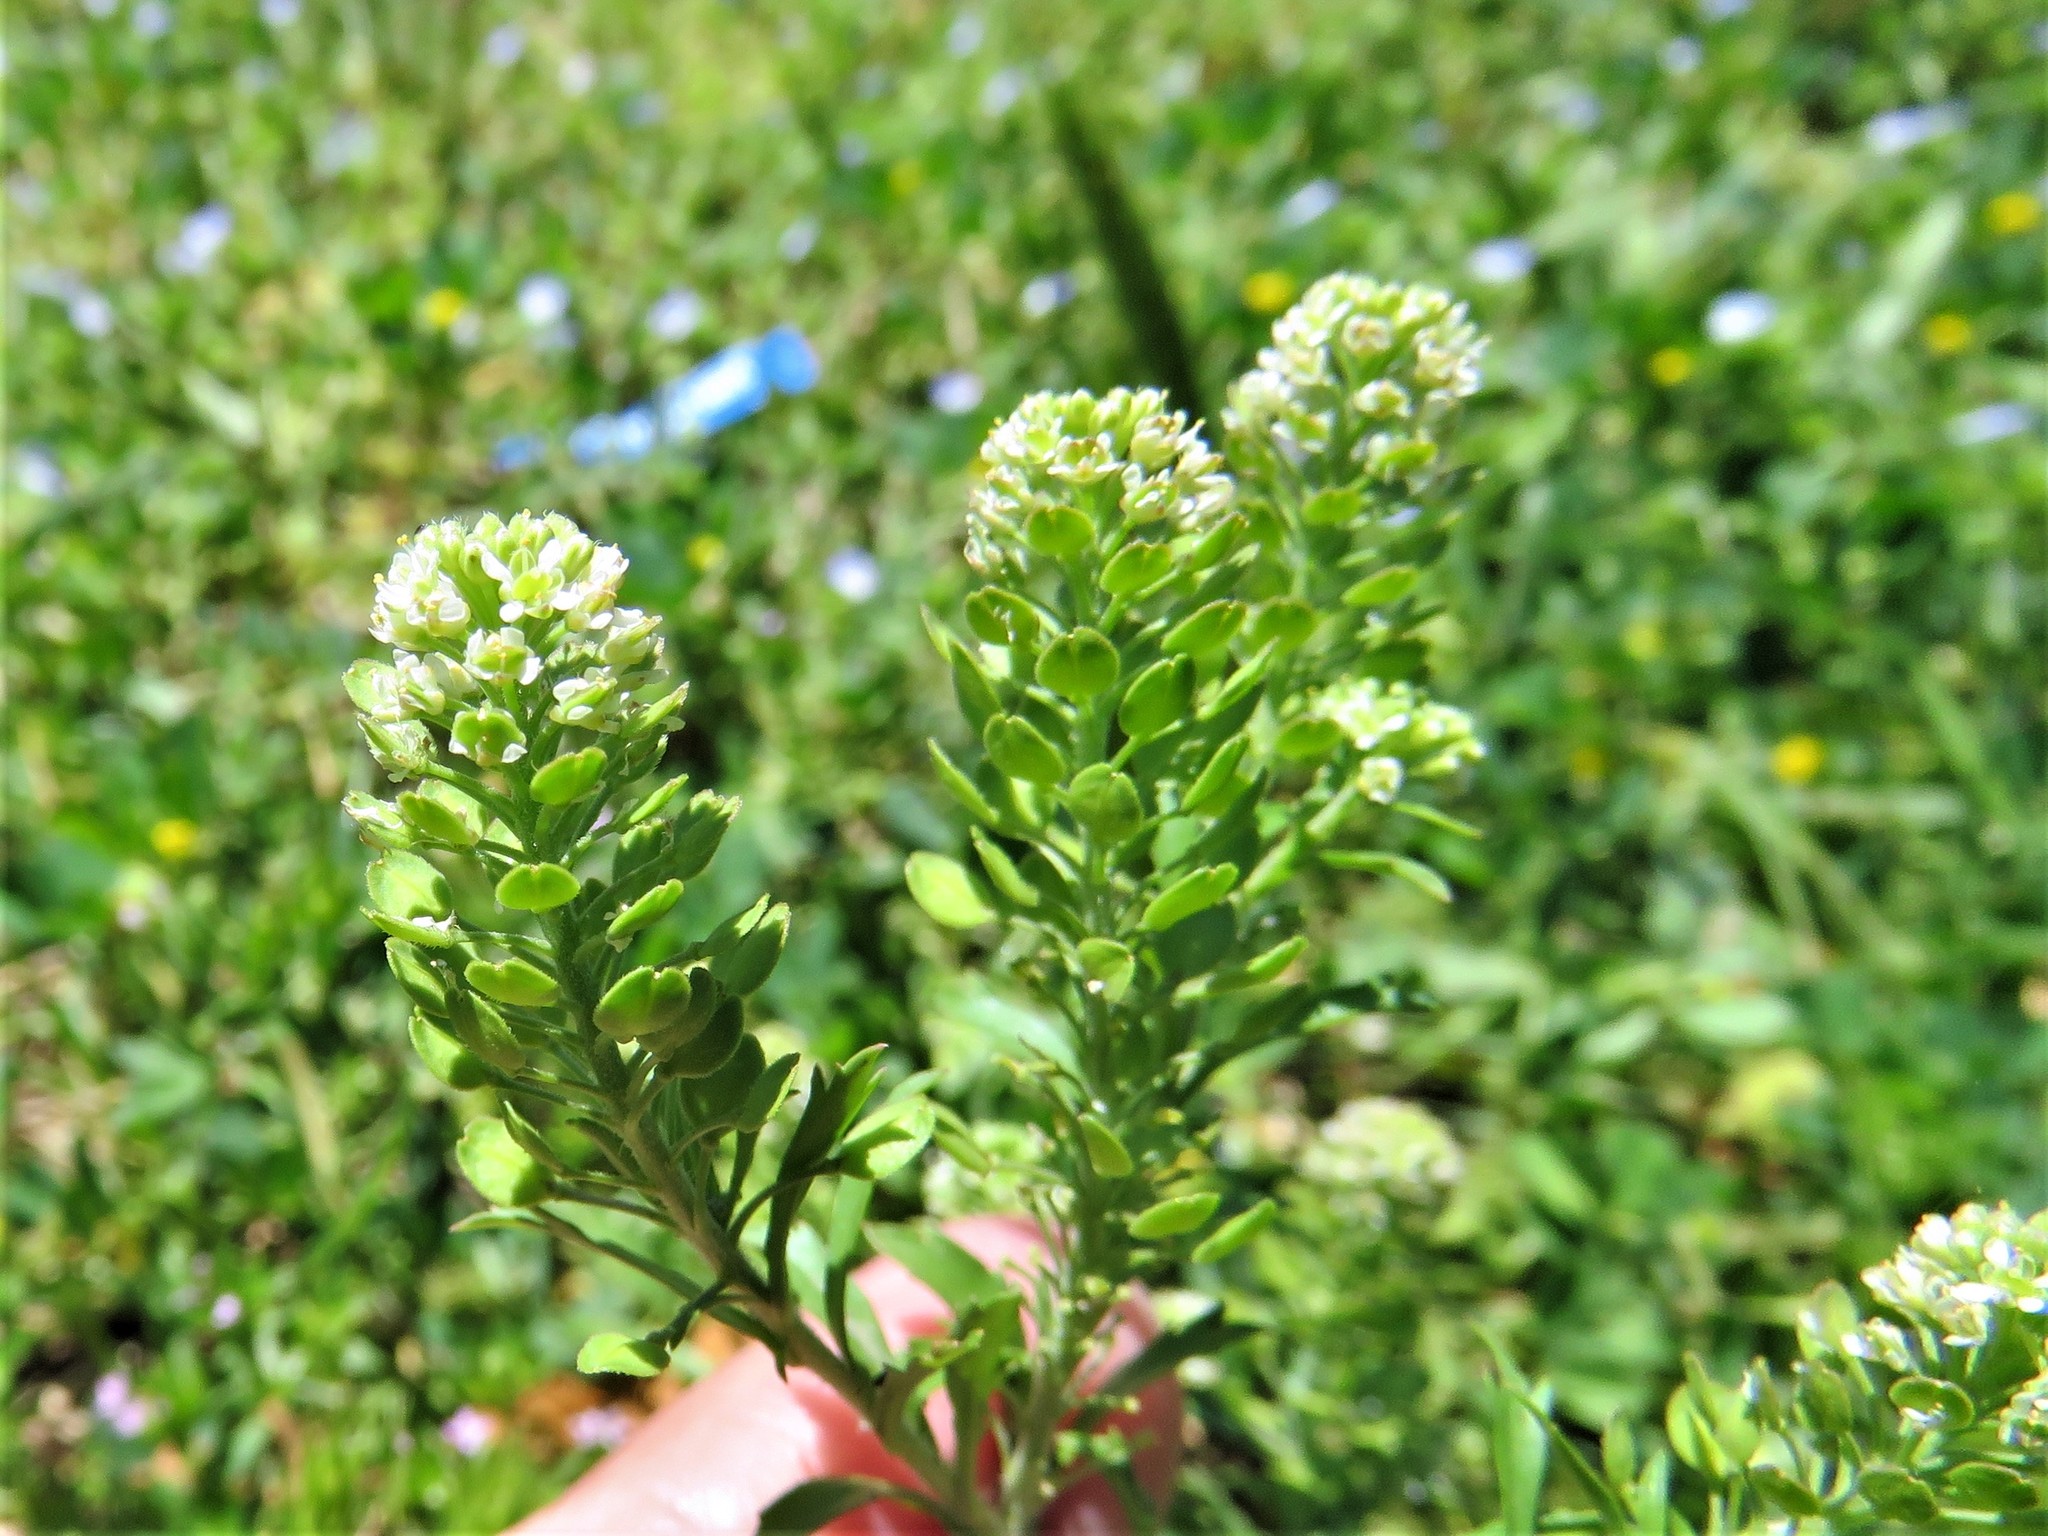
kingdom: Plantae
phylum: Tracheophyta
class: Magnoliopsida
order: Brassicales
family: Brassicaceae
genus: Lepidium
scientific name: Lepidium virginicum
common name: Least pepperwort
